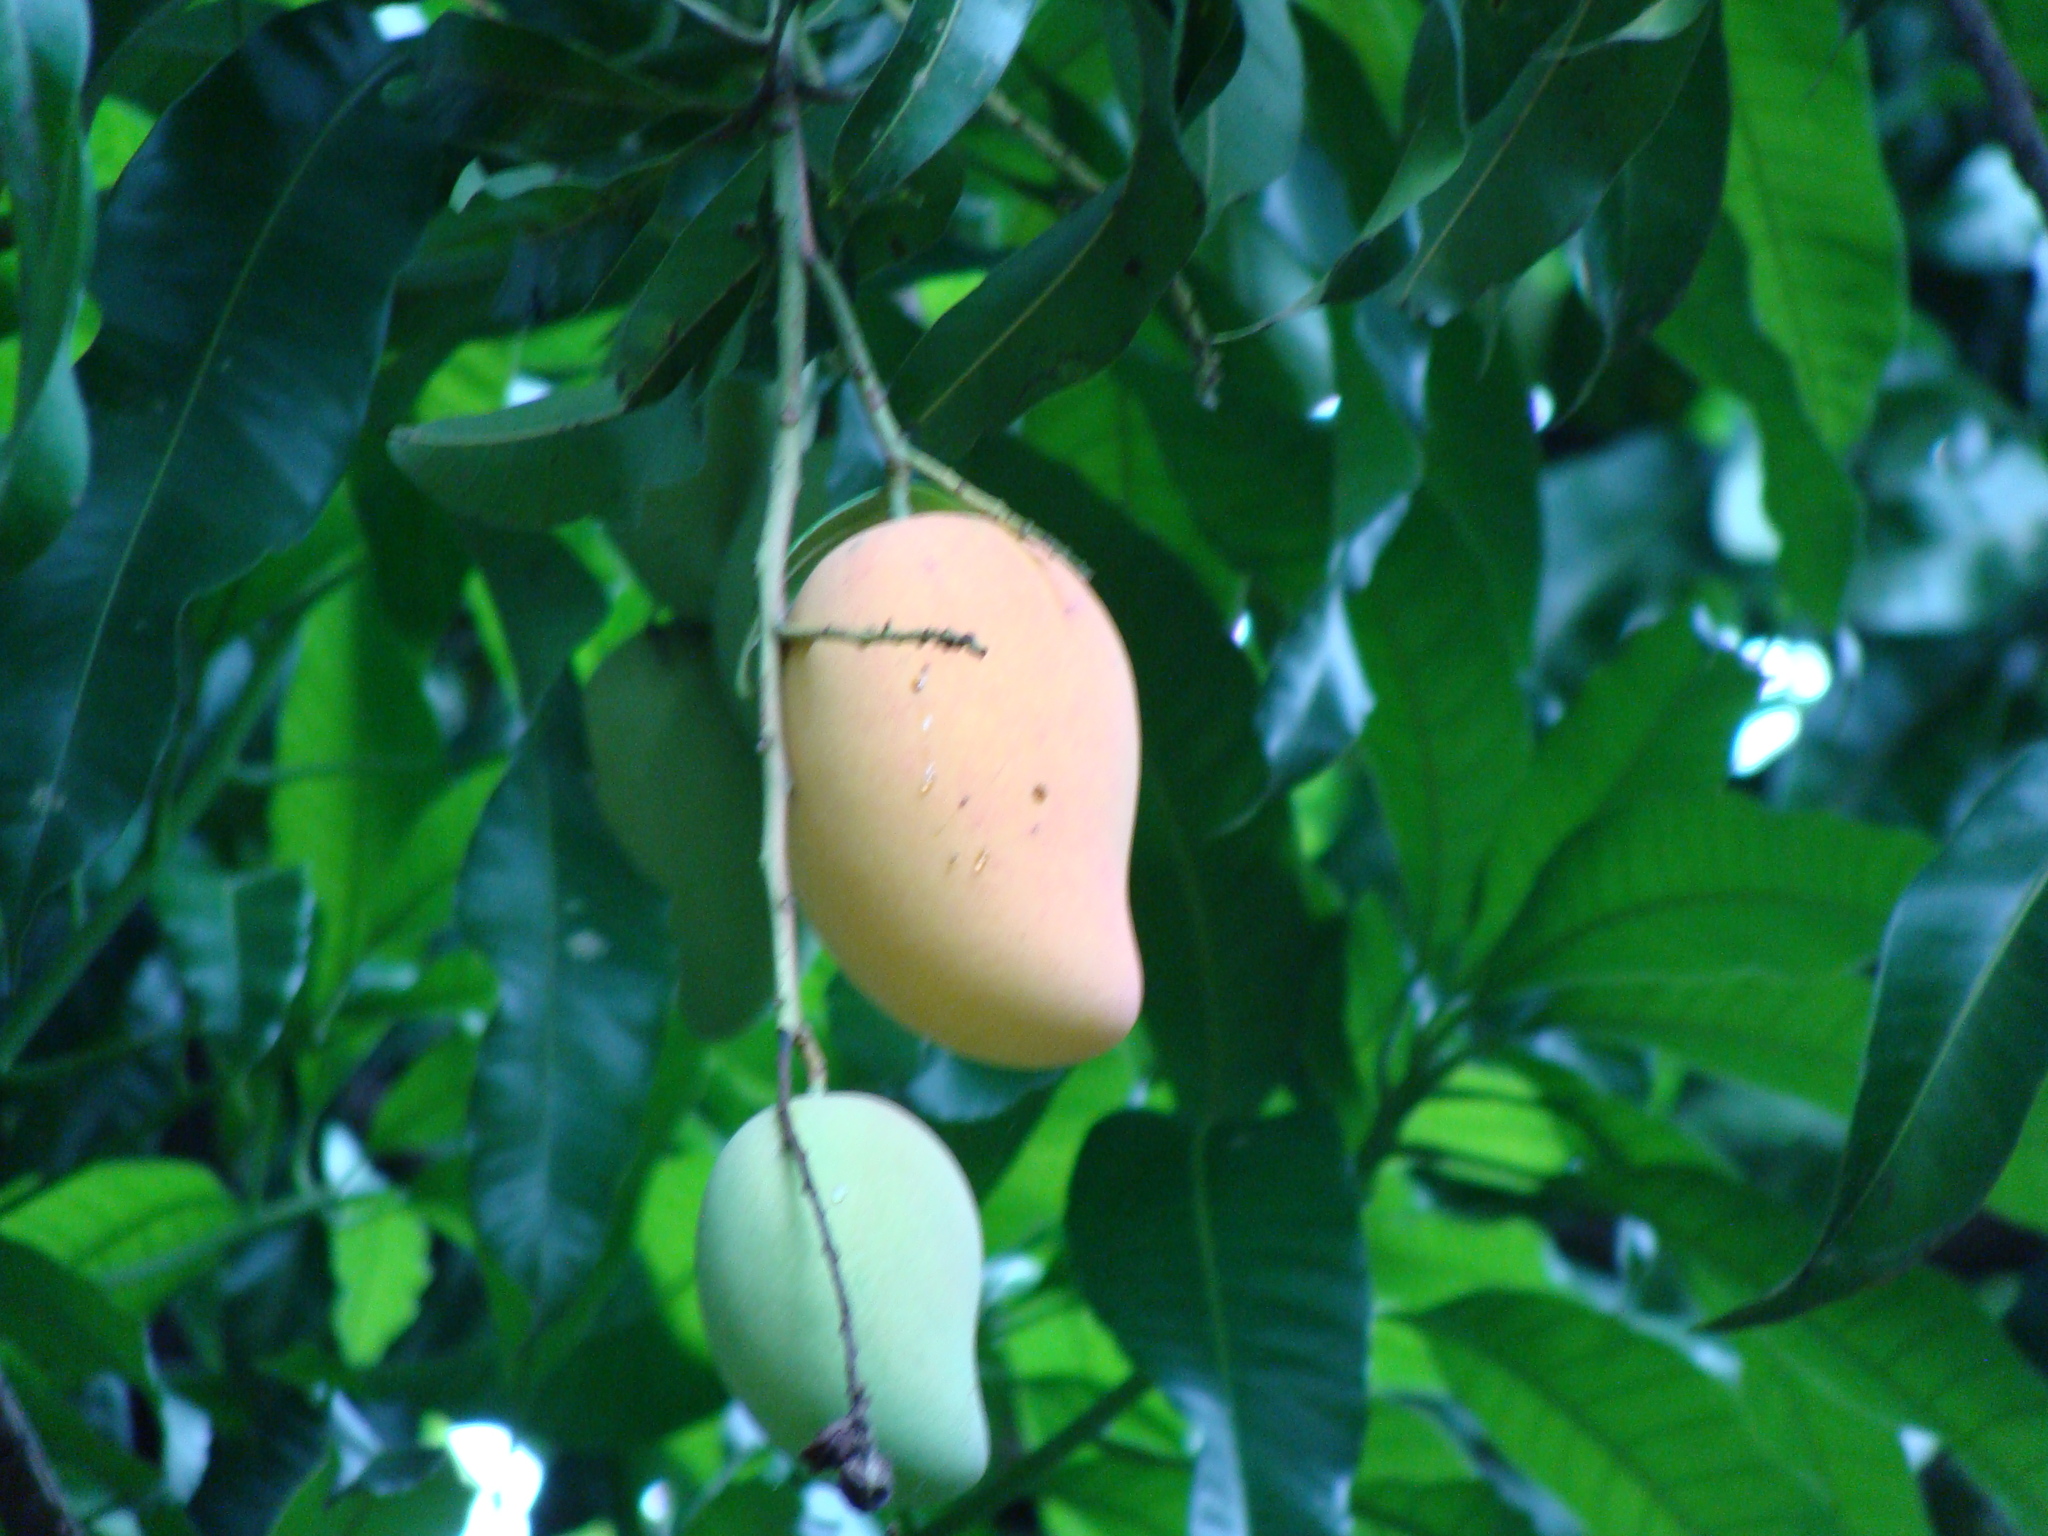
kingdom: Plantae
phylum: Tracheophyta
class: Magnoliopsida
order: Sapindales
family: Anacardiaceae
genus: Mangifera
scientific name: Mangifera indica
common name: Mango
